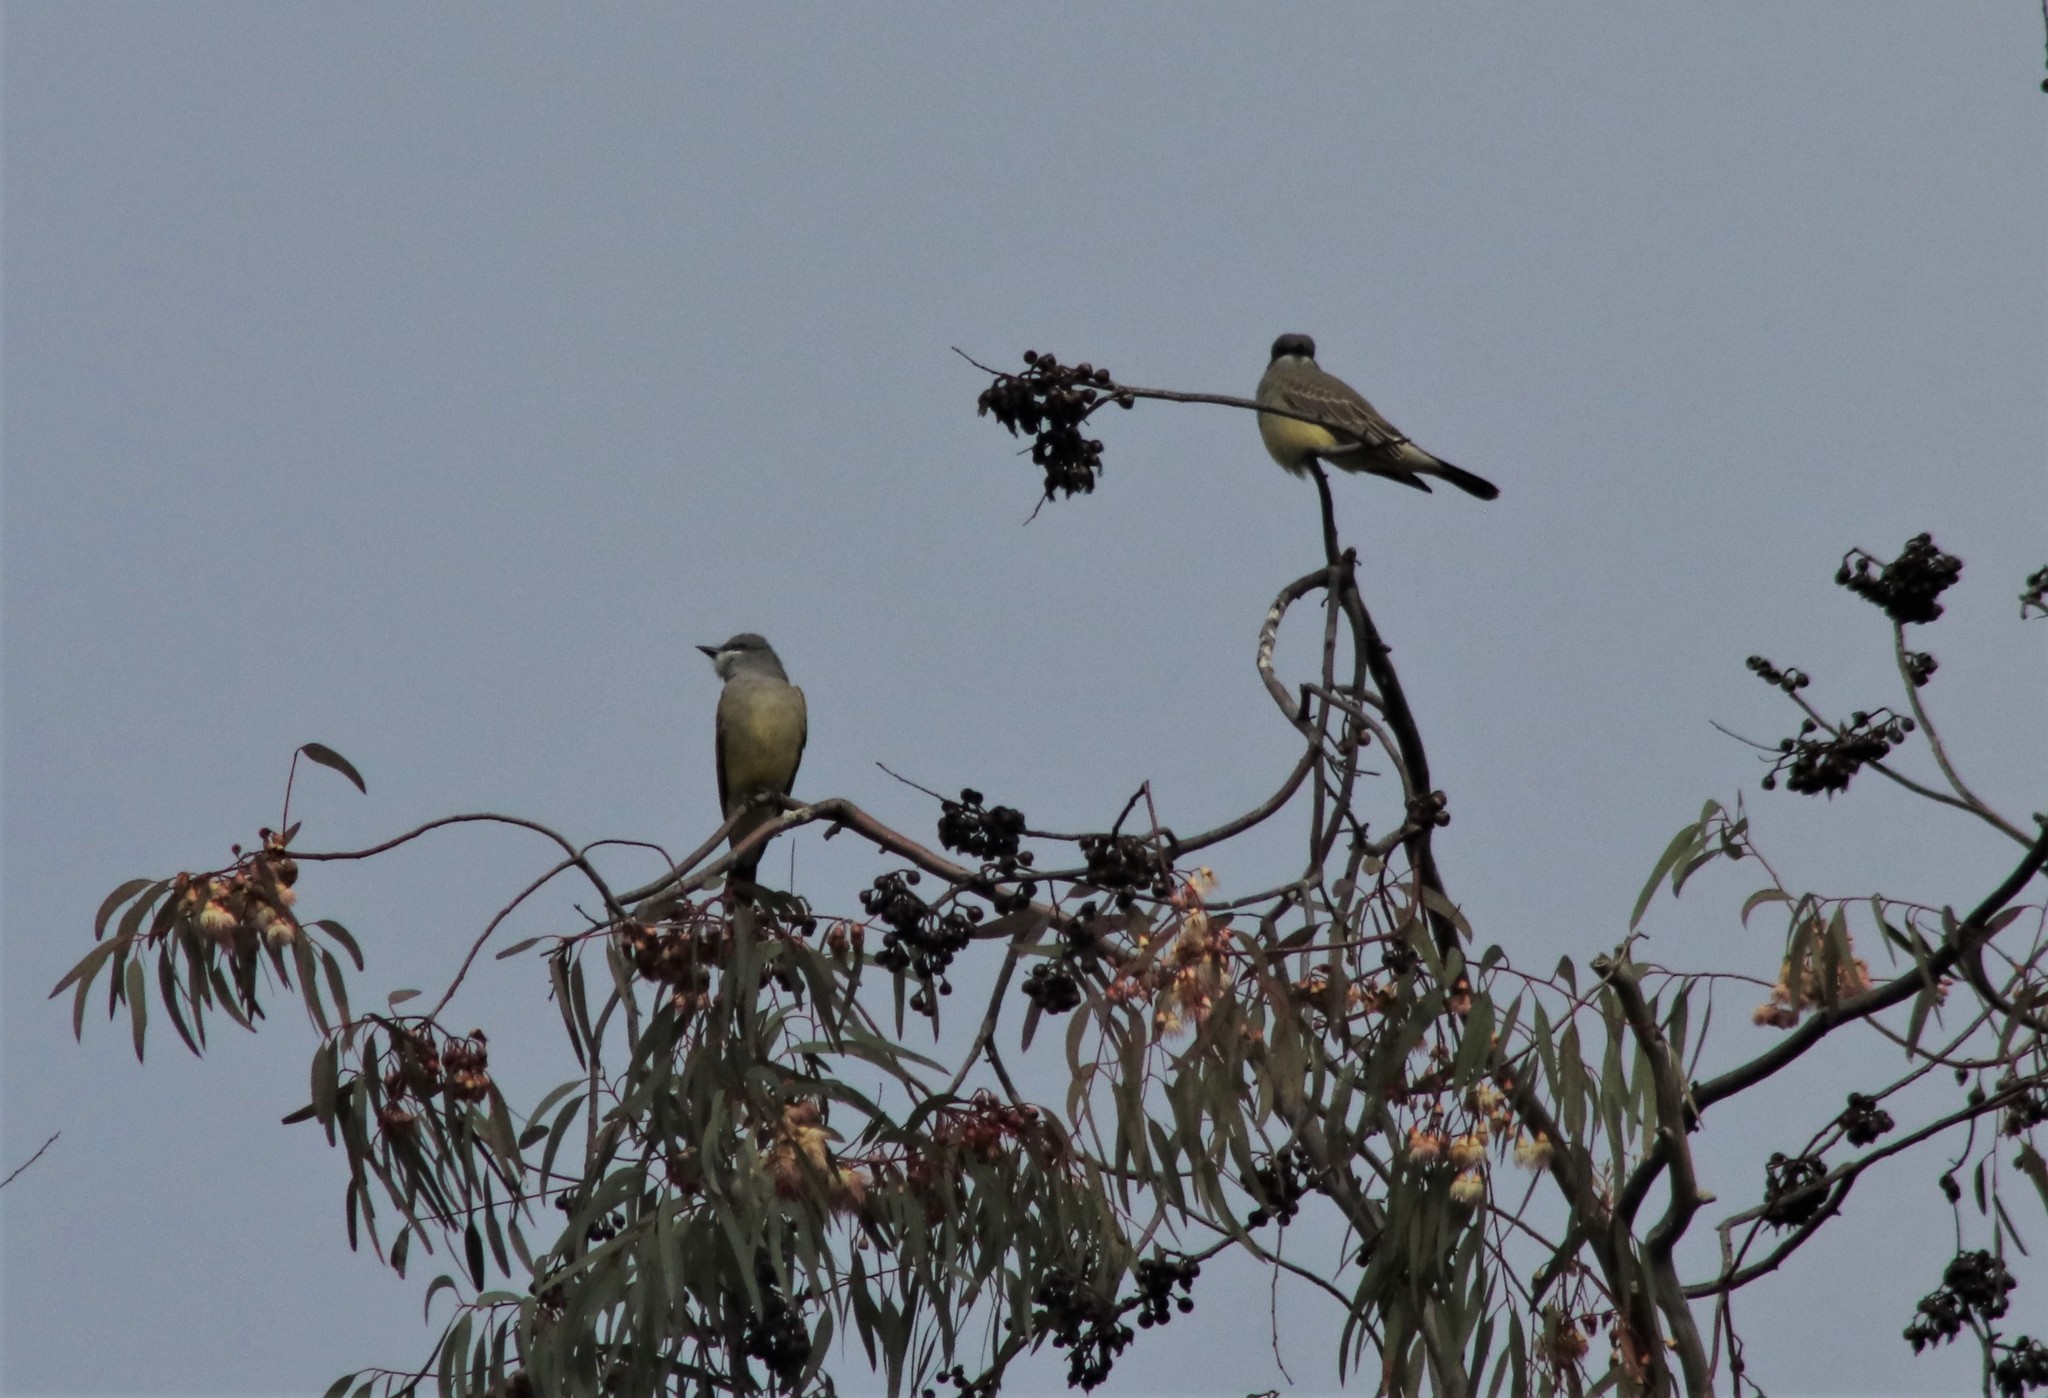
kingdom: Animalia
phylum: Chordata
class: Aves
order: Passeriformes
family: Tyrannidae
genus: Tyrannus
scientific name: Tyrannus vociferans
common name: Cassin's kingbird
